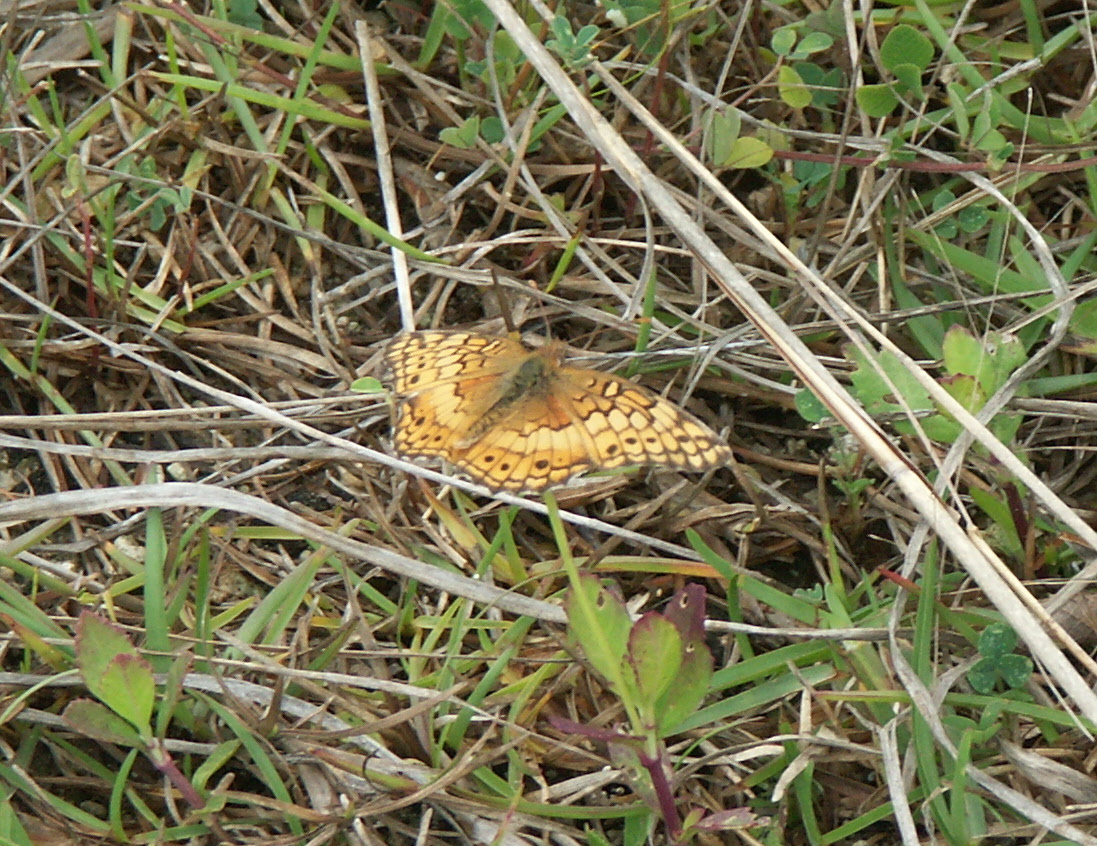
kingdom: Animalia
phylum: Arthropoda
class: Insecta
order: Lepidoptera
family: Nymphalidae
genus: Euptoieta
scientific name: Euptoieta claudia
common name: Variegated fritillary
